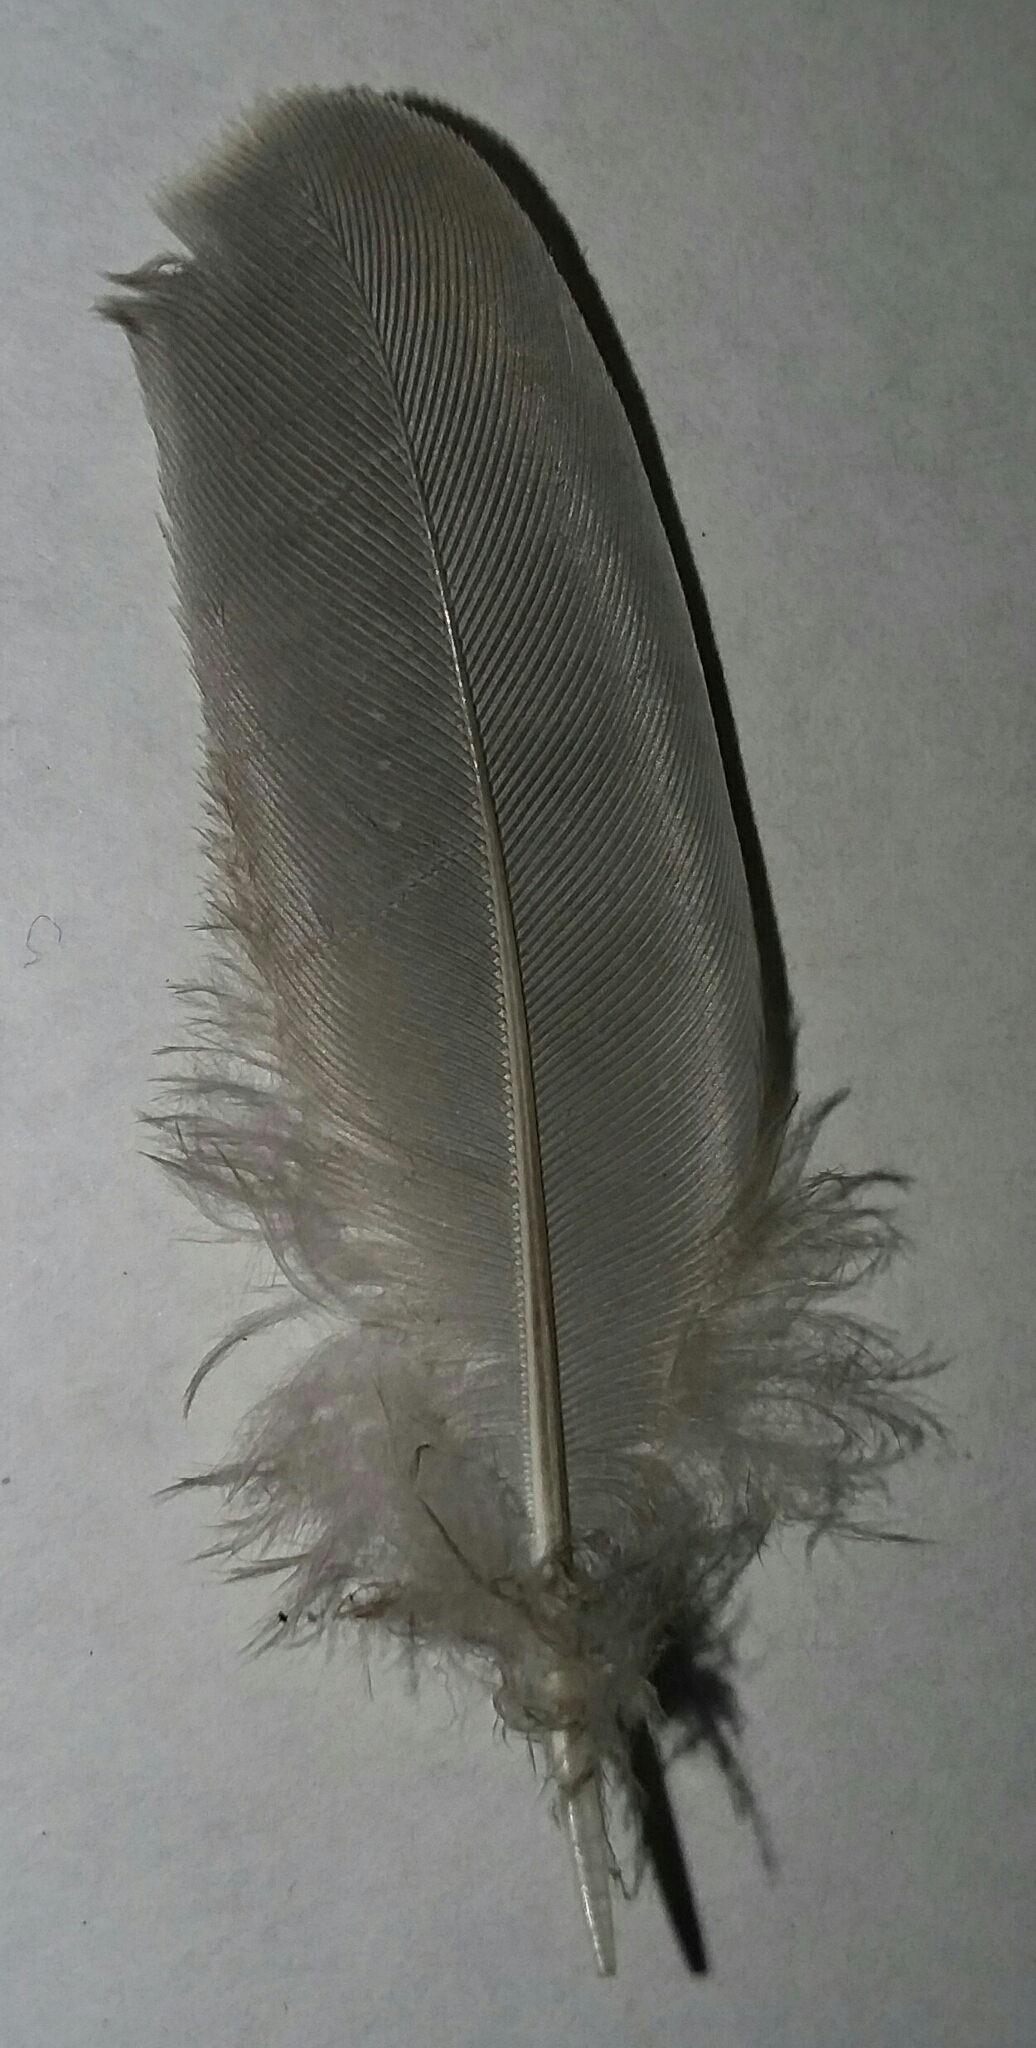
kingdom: Animalia
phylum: Chordata
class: Aves
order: Columbiformes
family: Columbidae
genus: Zenaida
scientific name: Zenaida macroura
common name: Mourning dove
